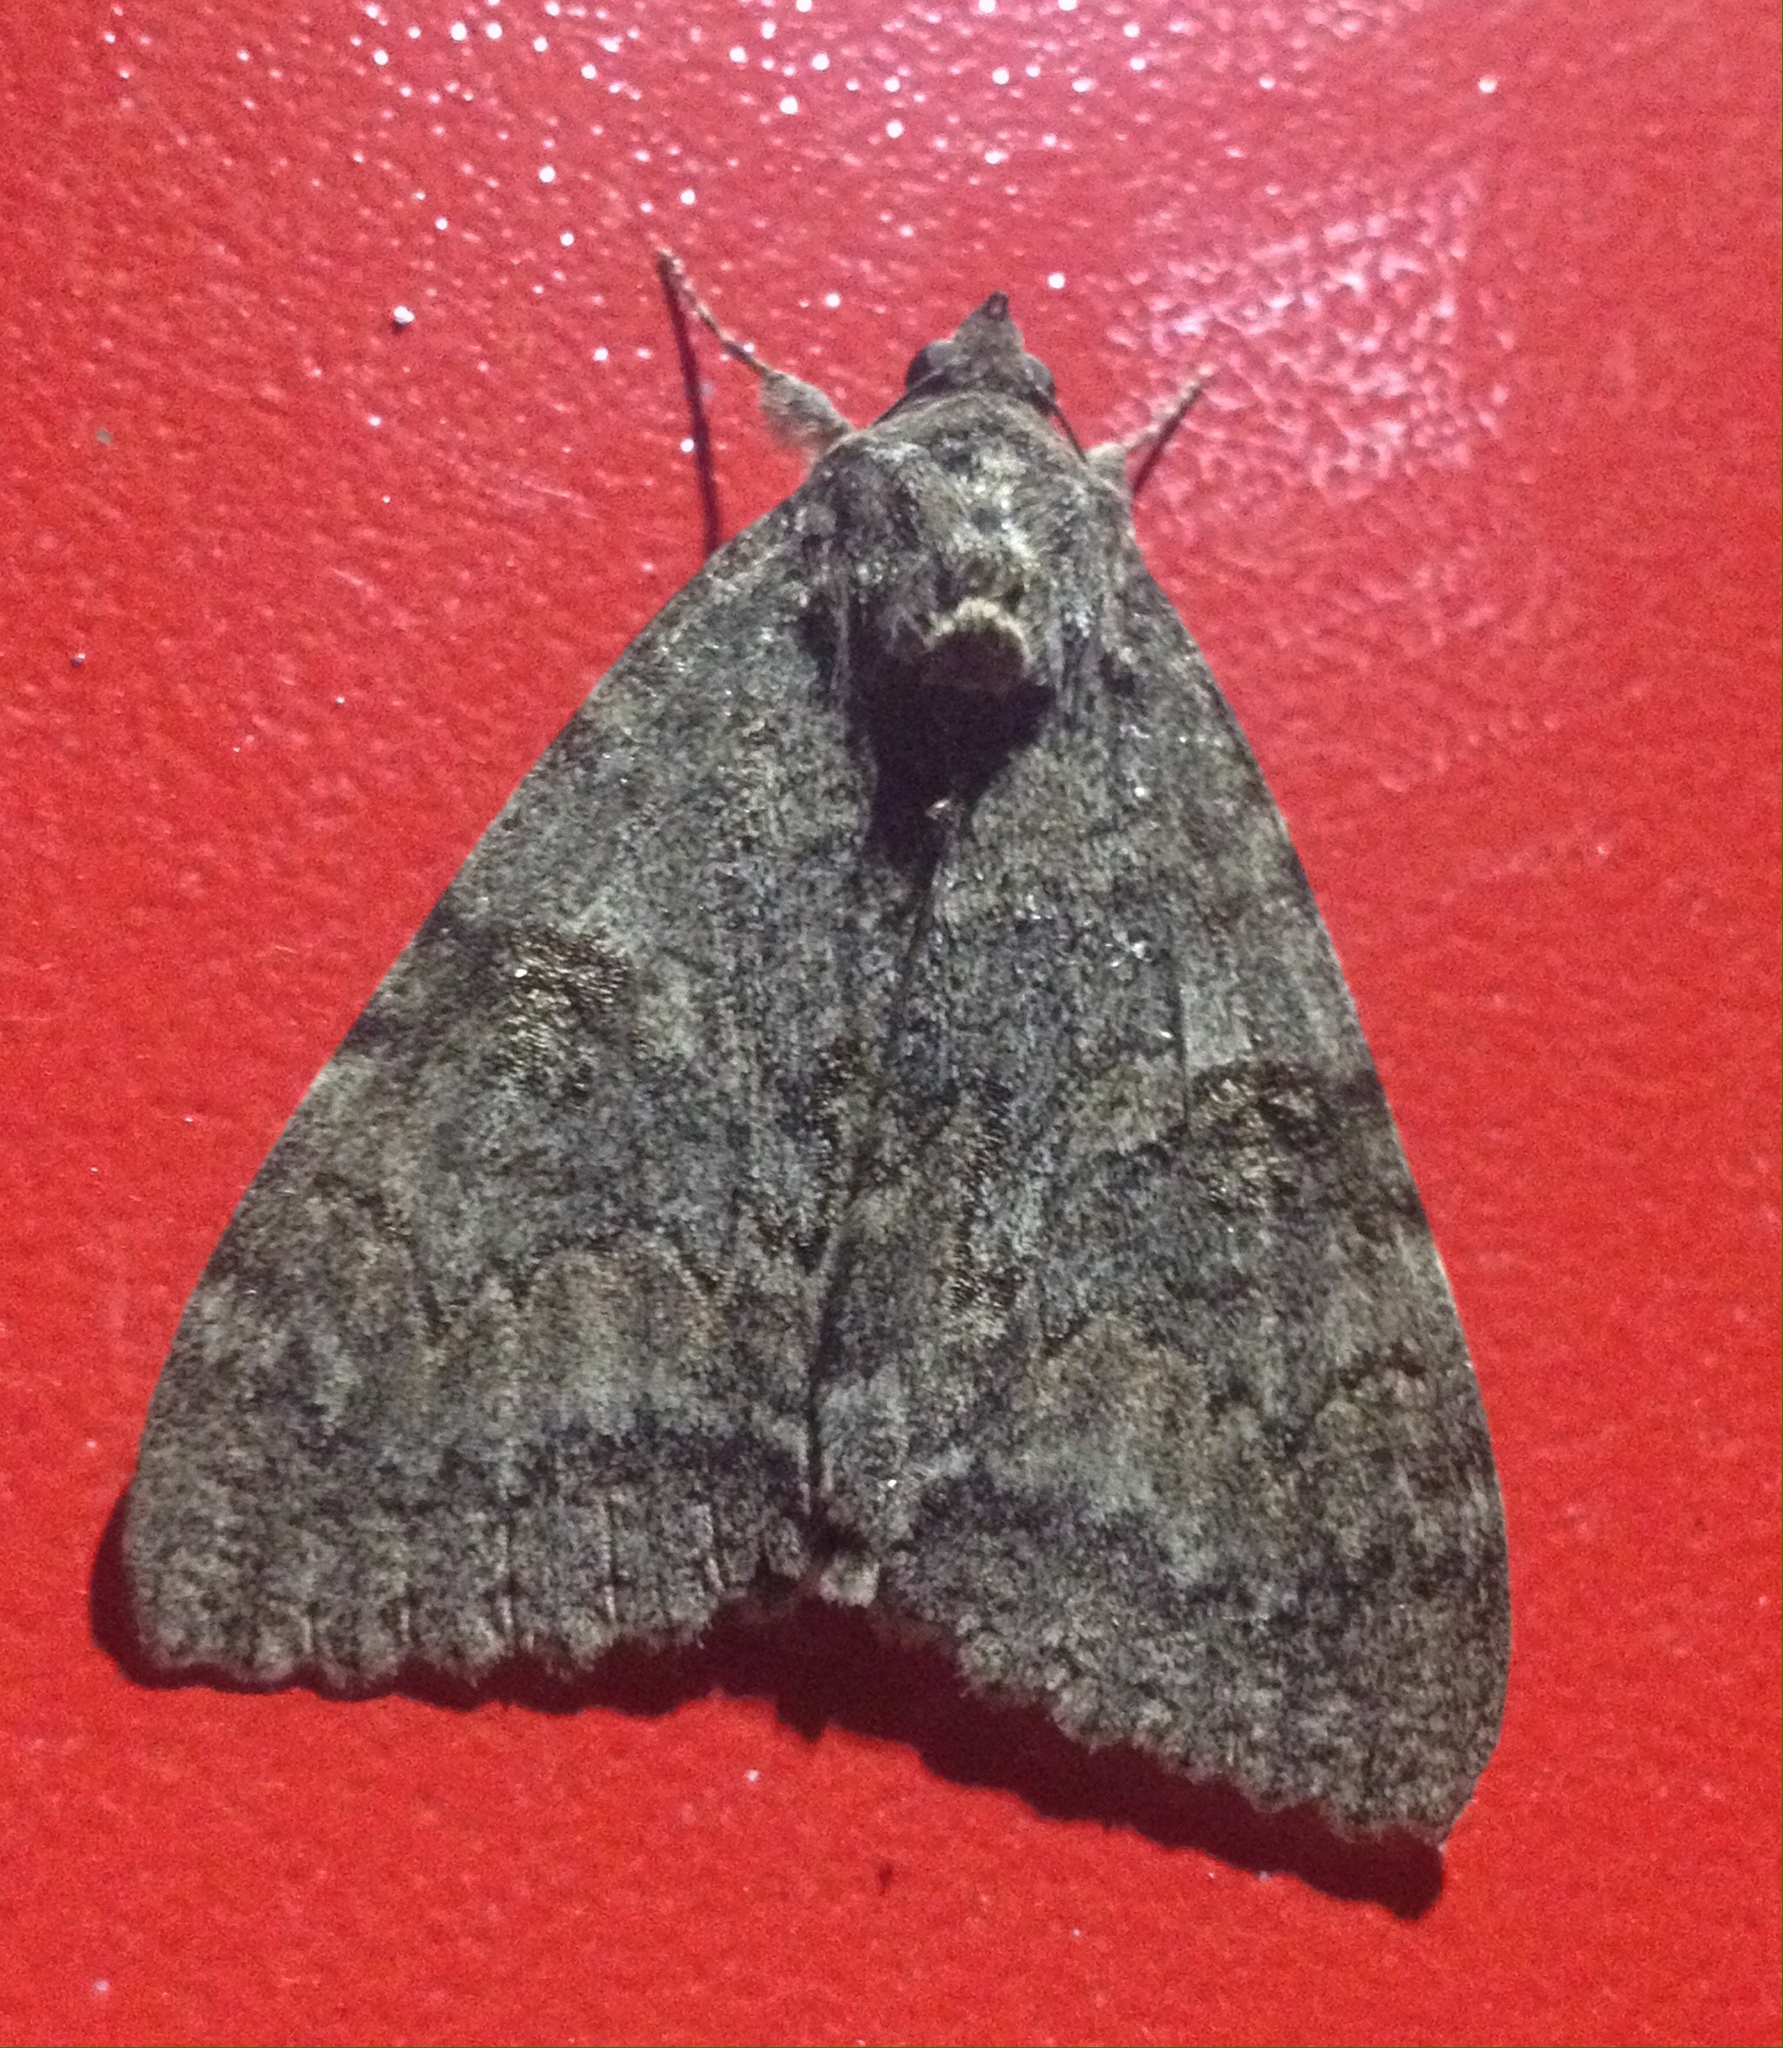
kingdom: Animalia
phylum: Arthropoda
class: Insecta
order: Lepidoptera
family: Erebidae
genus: Catocala
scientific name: Catocala nupta
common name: Red underwing
